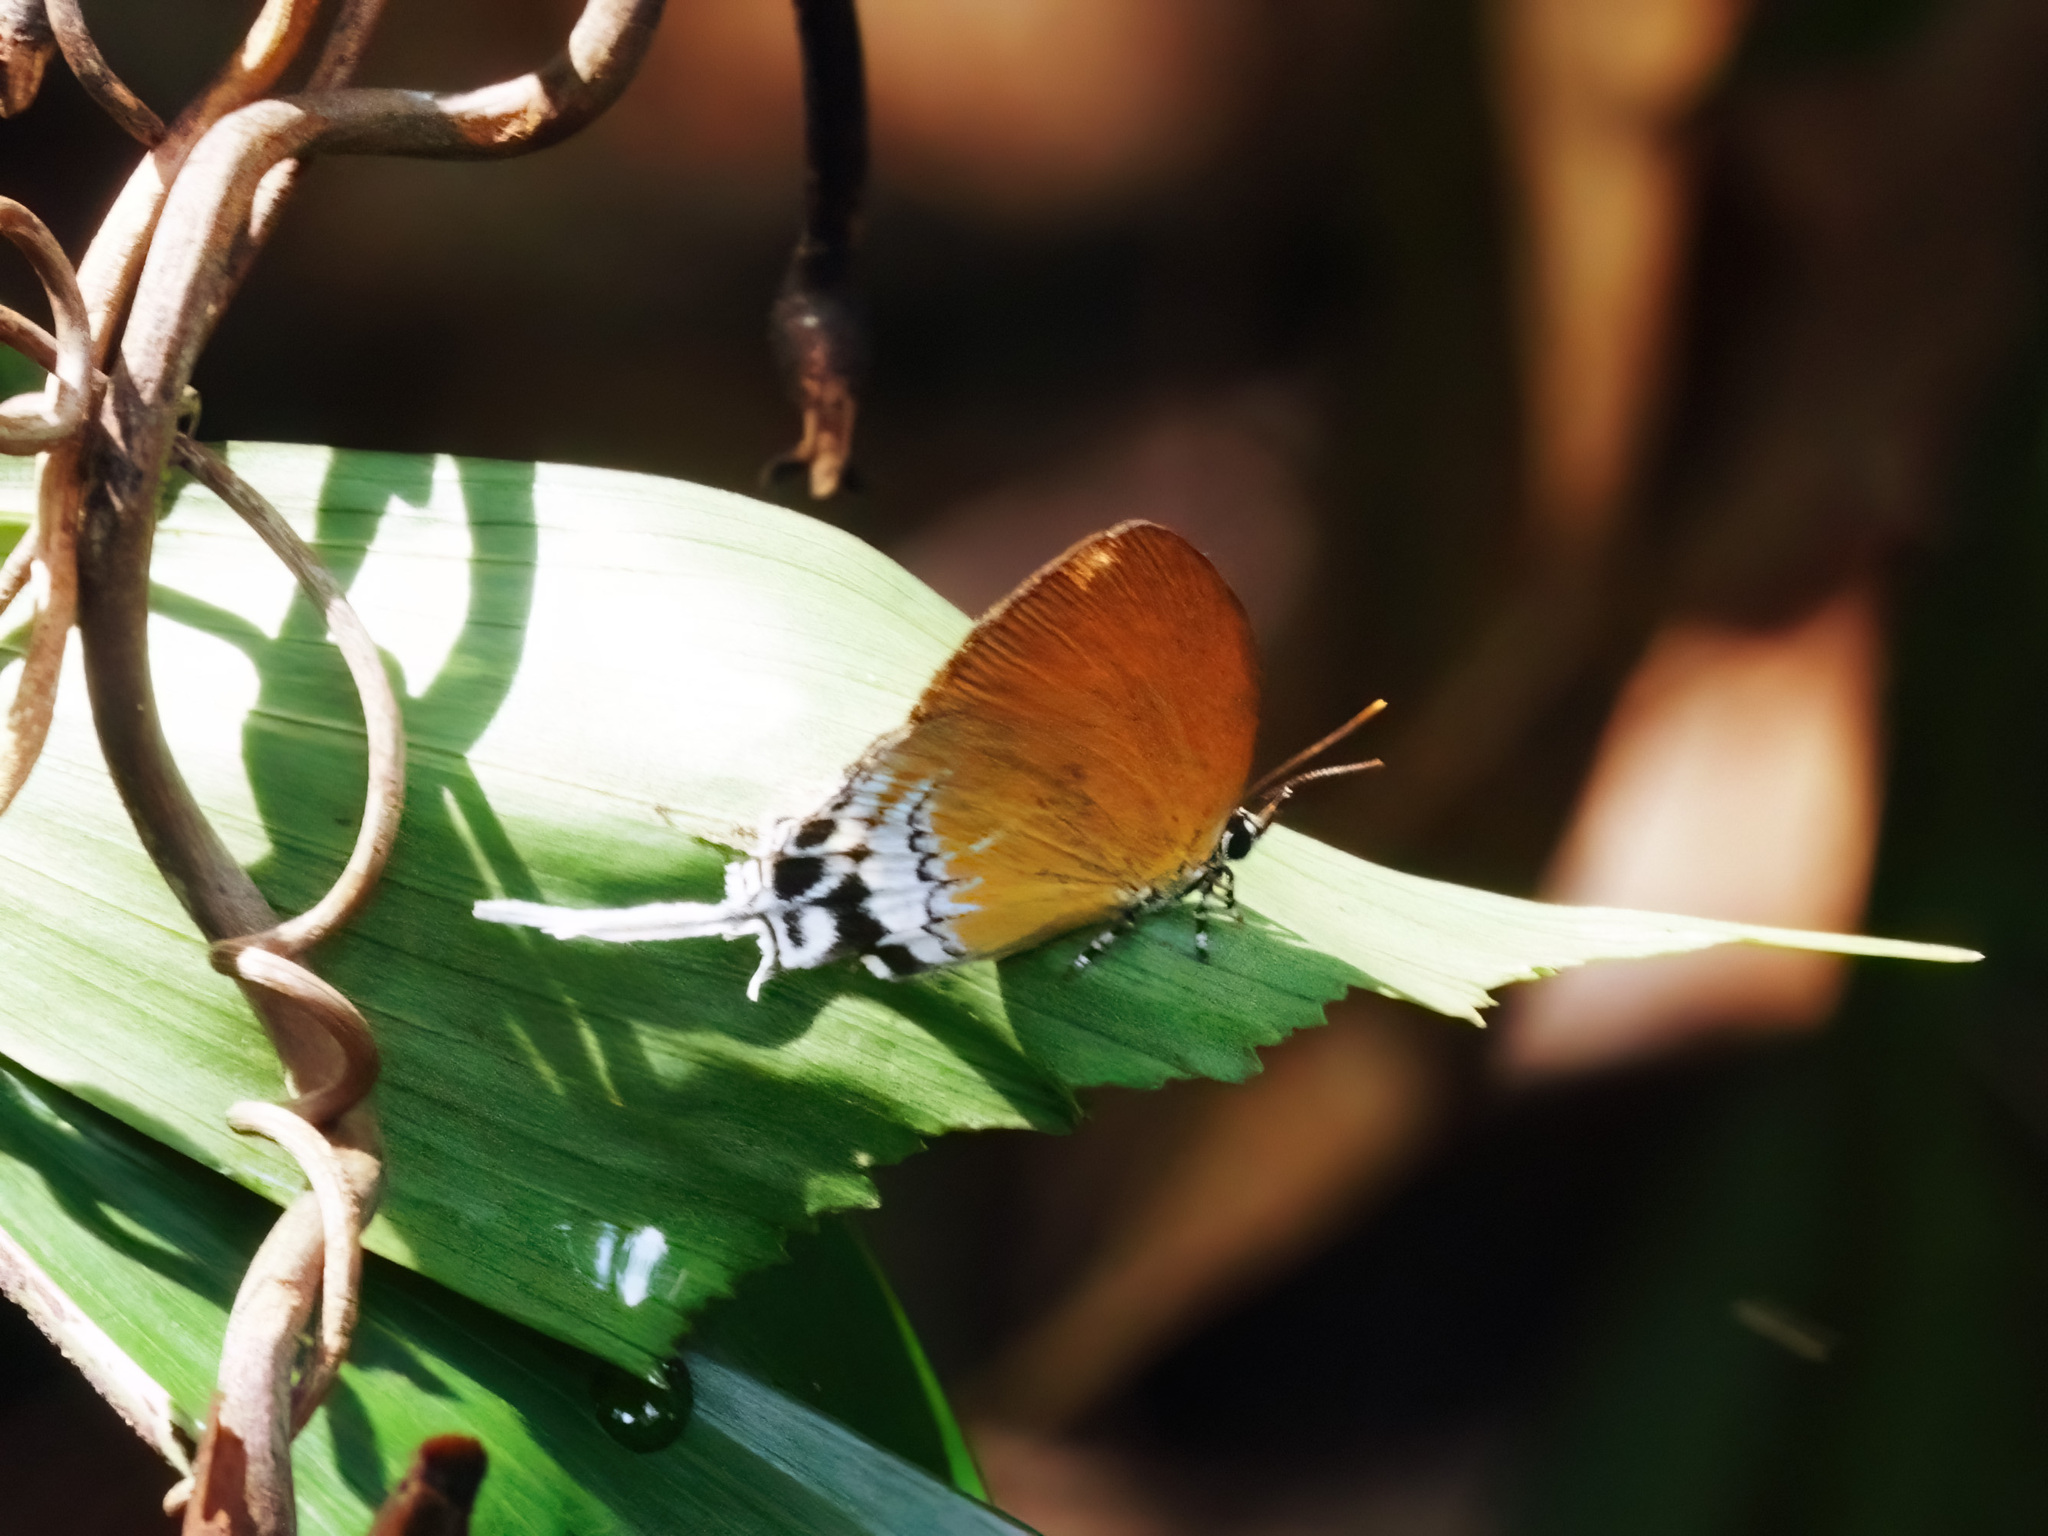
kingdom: Animalia
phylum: Arthropoda
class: Insecta
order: Lepidoptera
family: Lycaenidae
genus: Eooxylides
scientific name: Eooxylides tharis
